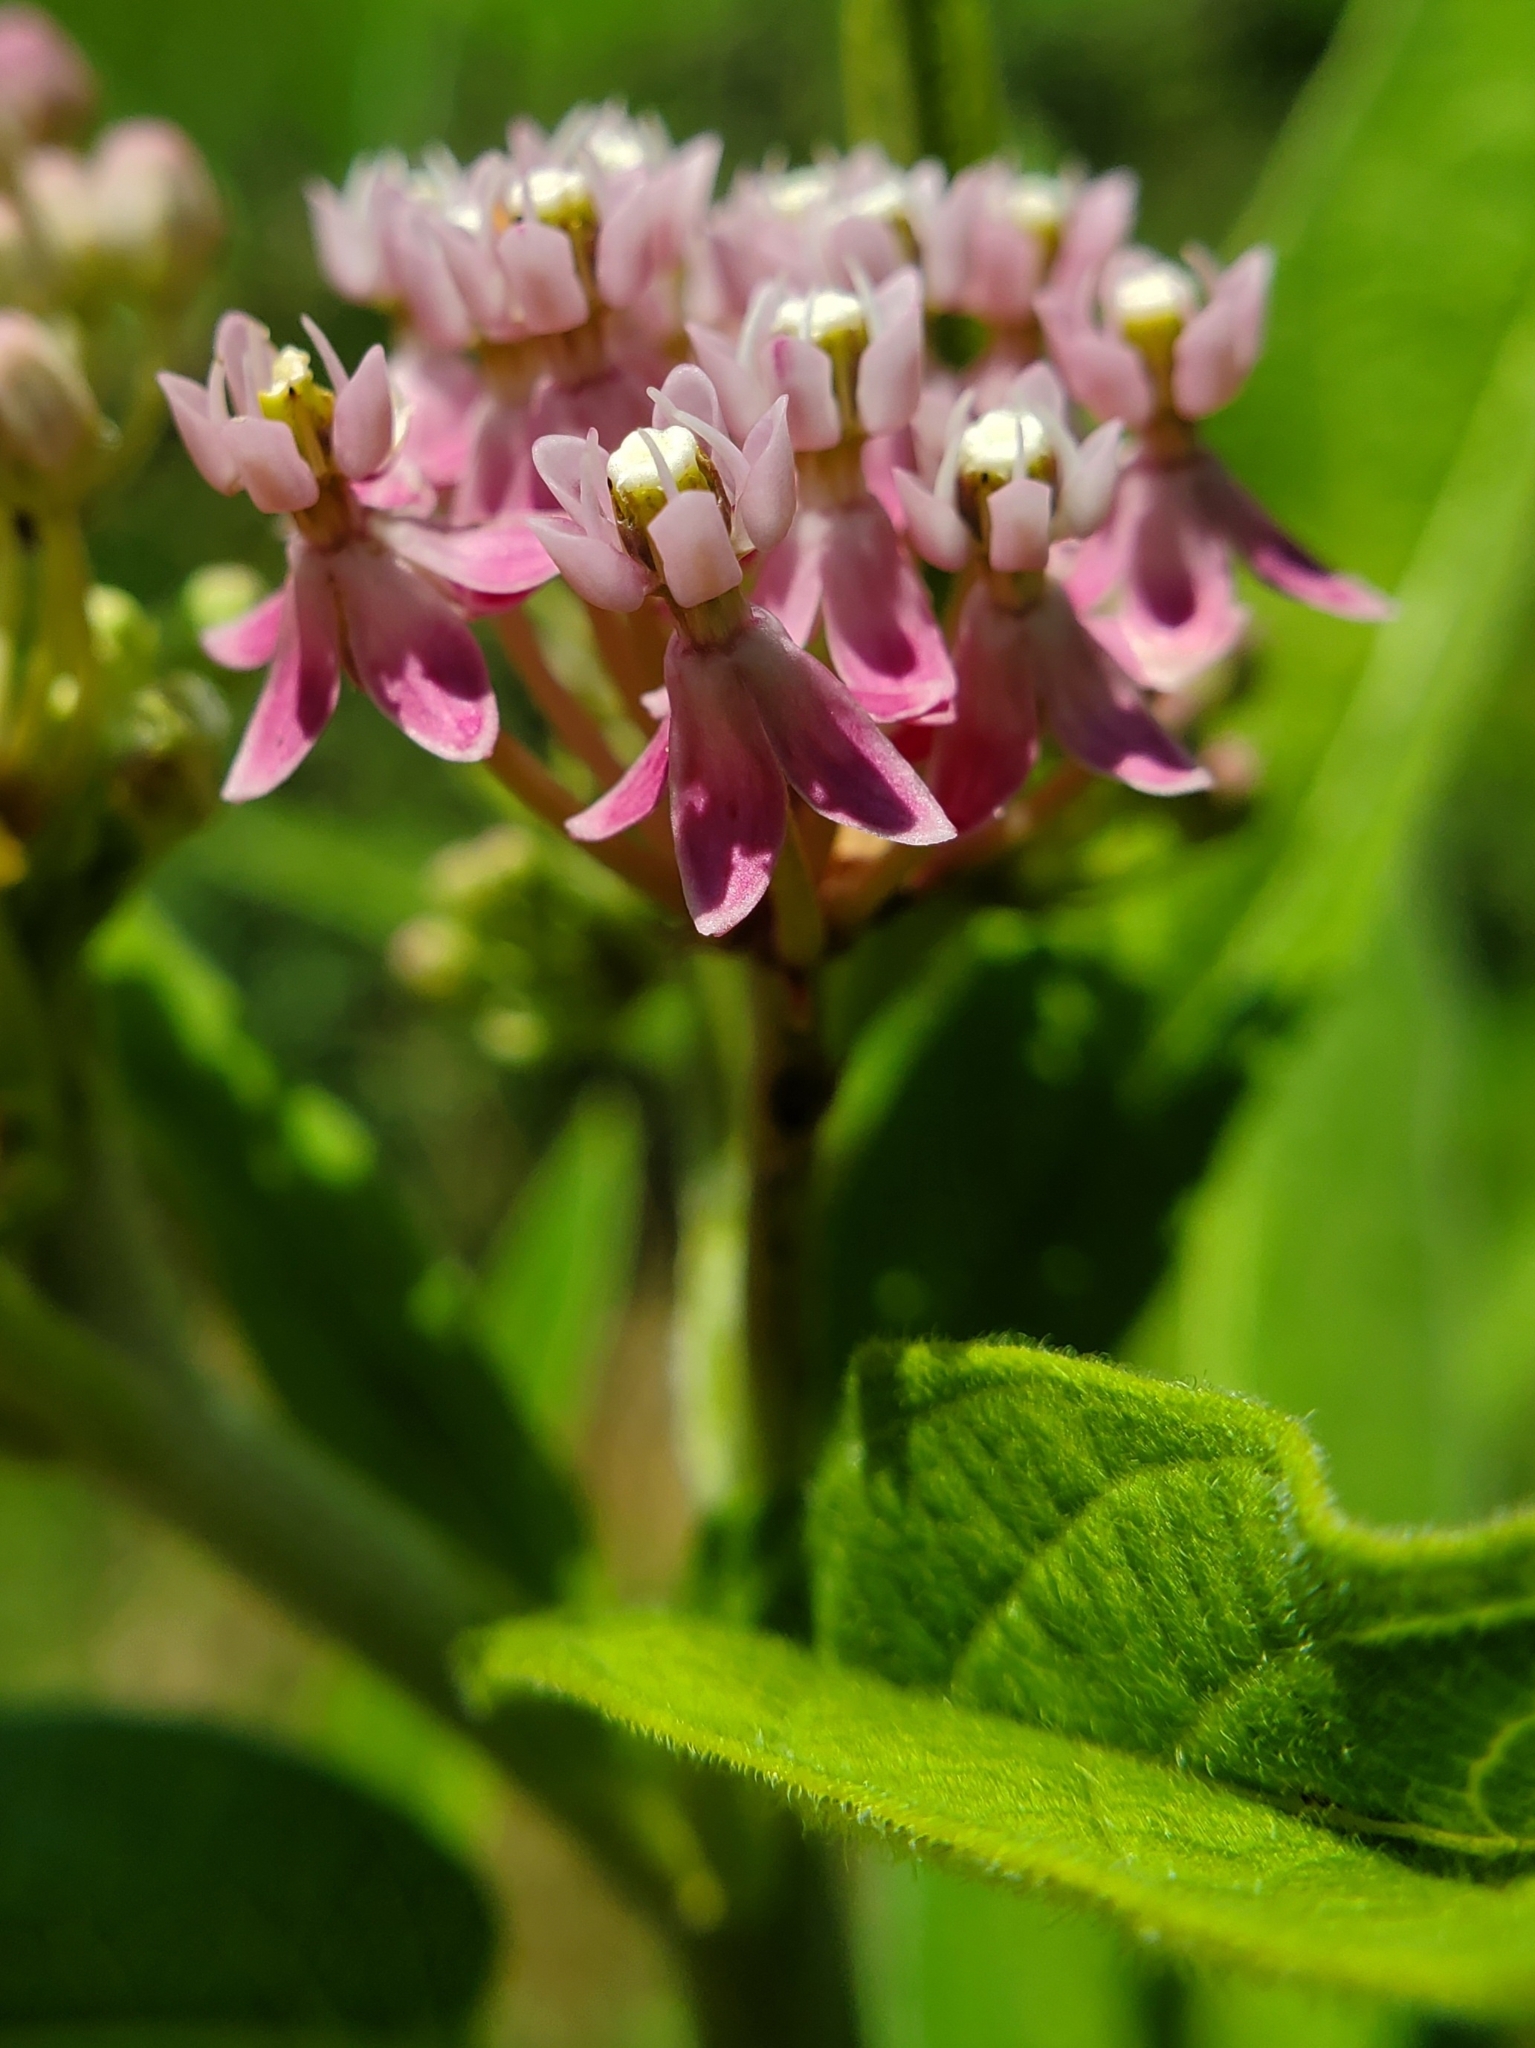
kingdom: Plantae
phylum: Tracheophyta
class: Magnoliopsida
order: Gentianales
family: Apocynaceae
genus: Asclepias
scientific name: Asclepias incarnata
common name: Swamp milkweed
